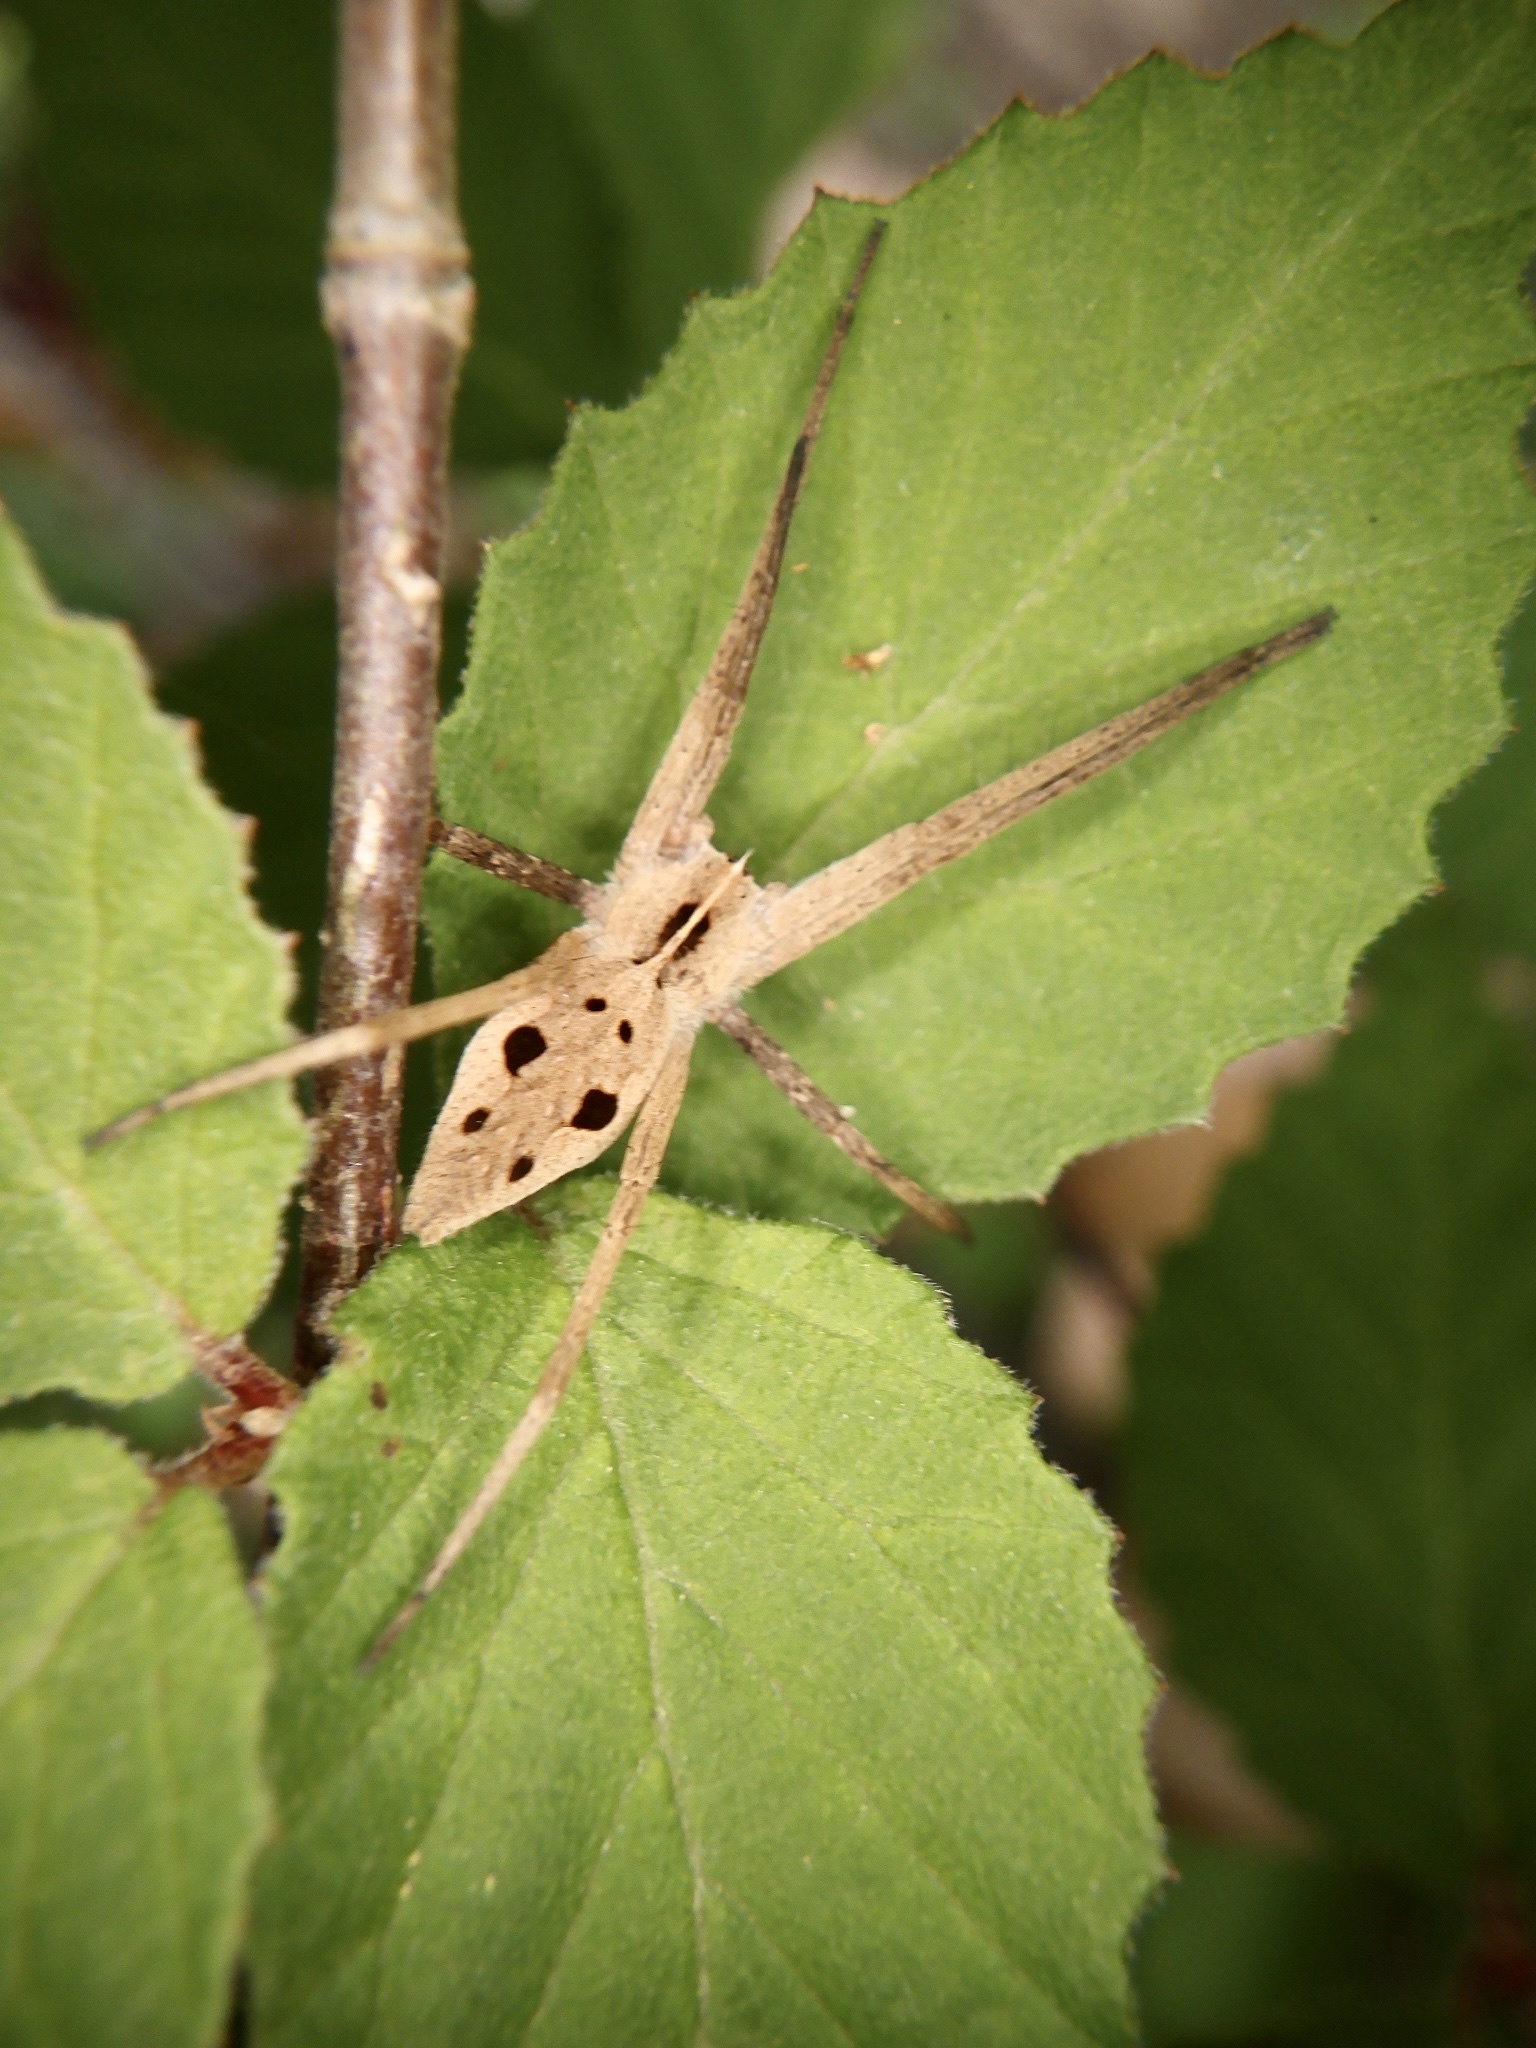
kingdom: Animalia
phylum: Arthropoda
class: Arachnida
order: Araneae
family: Pisauridae
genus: Pisaura
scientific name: Pisaura lama
